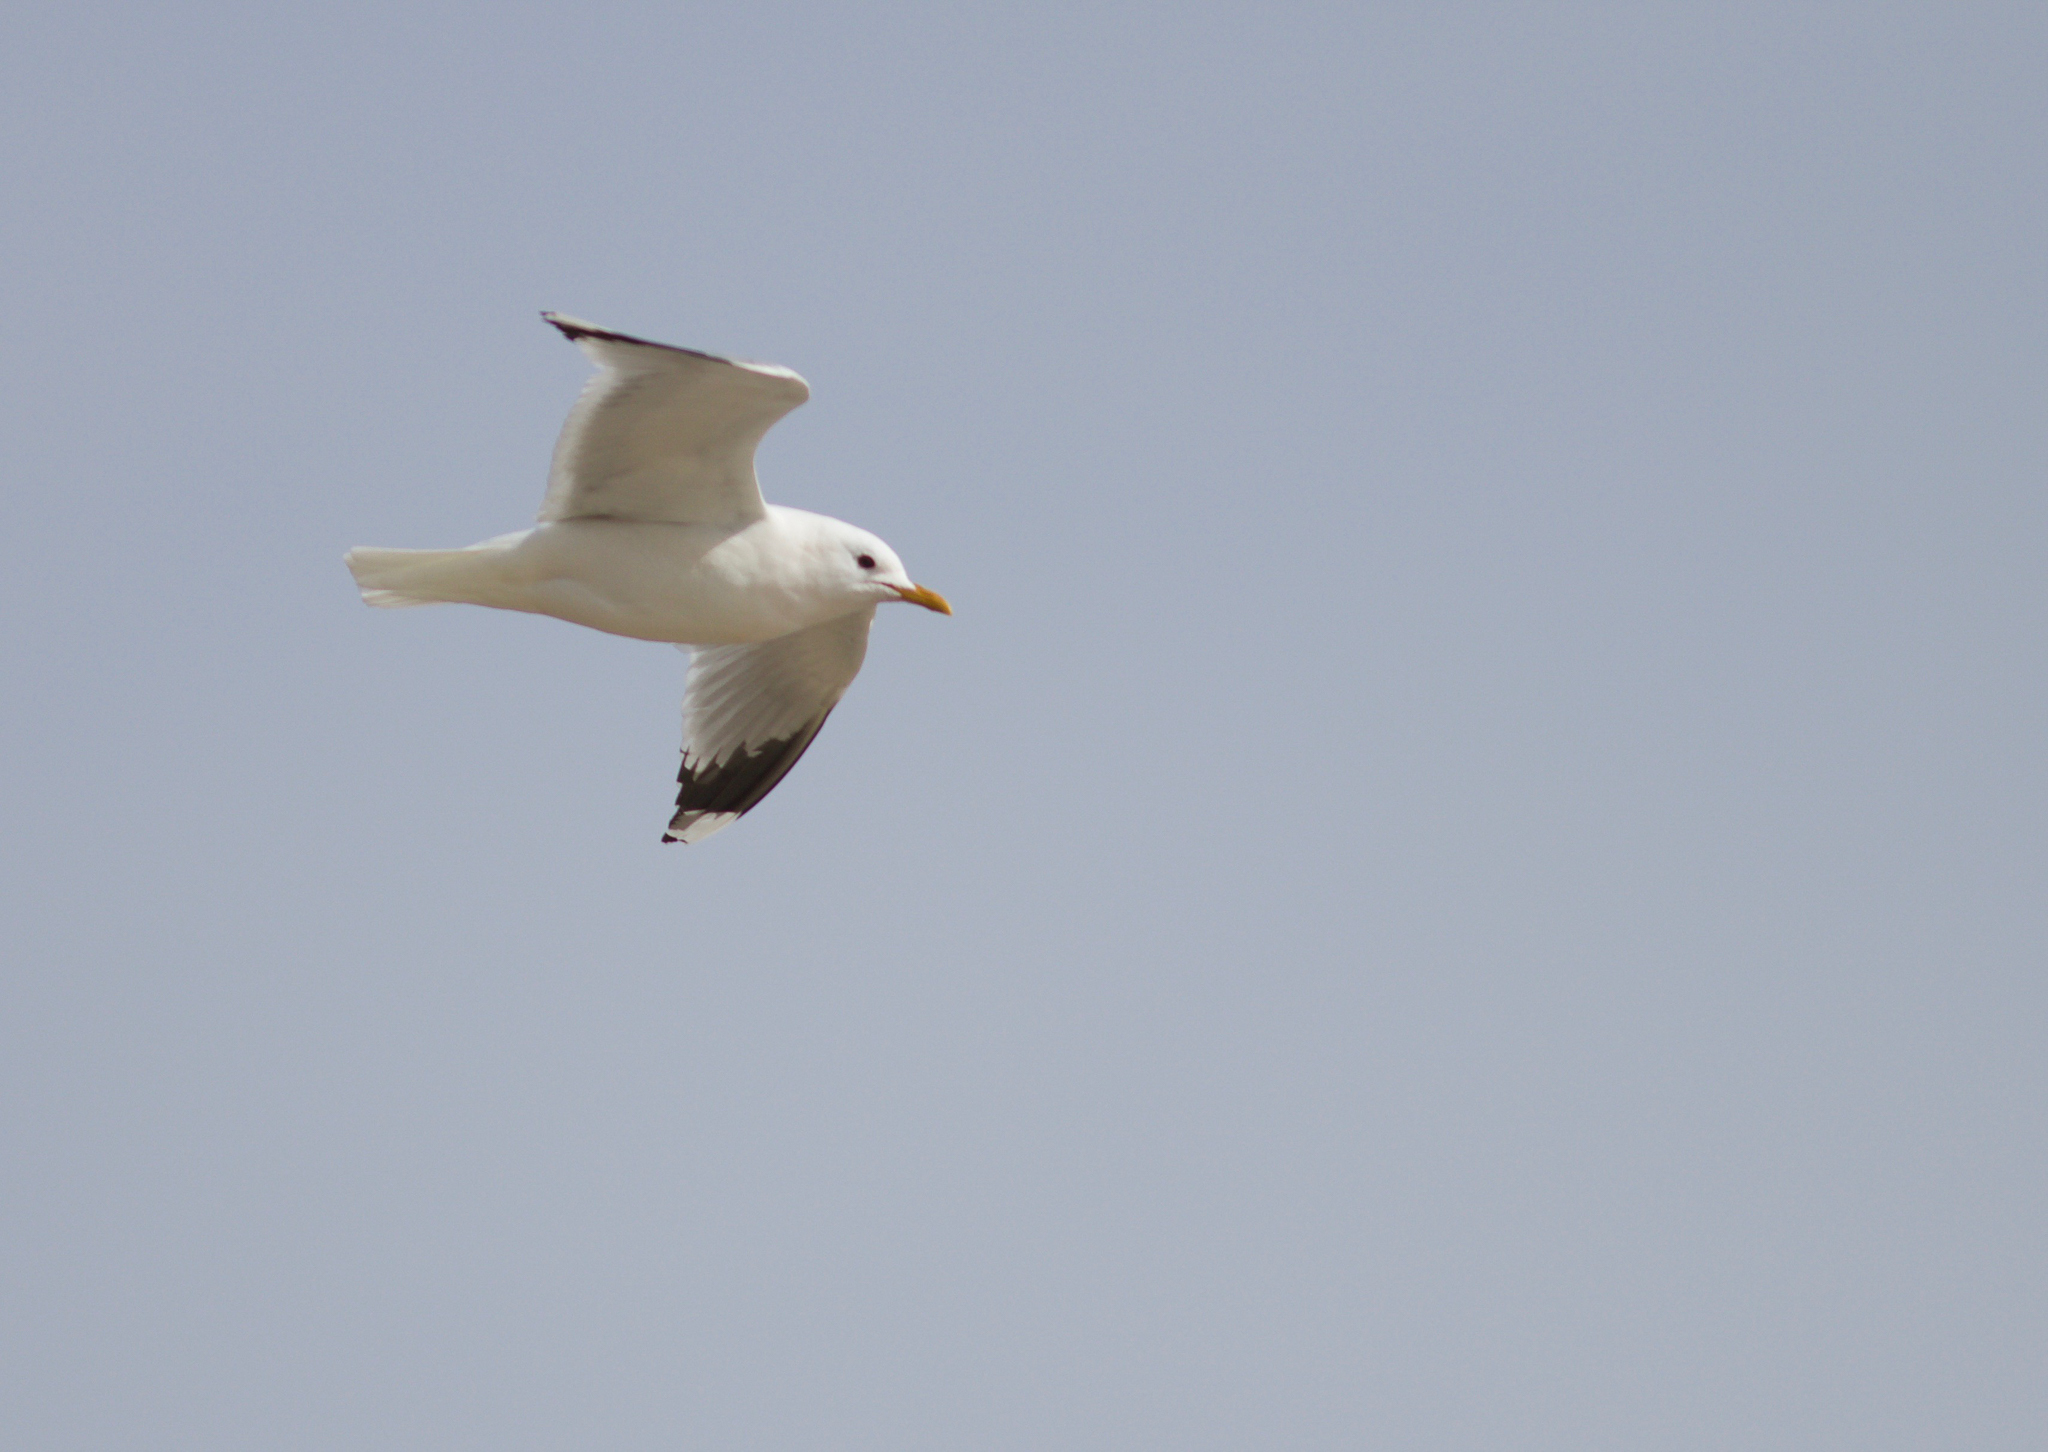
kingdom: Animalia
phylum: Chordata
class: Aves
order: Charadriiformes
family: Laridae
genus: Larus
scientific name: Larus canus
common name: Mew gull
